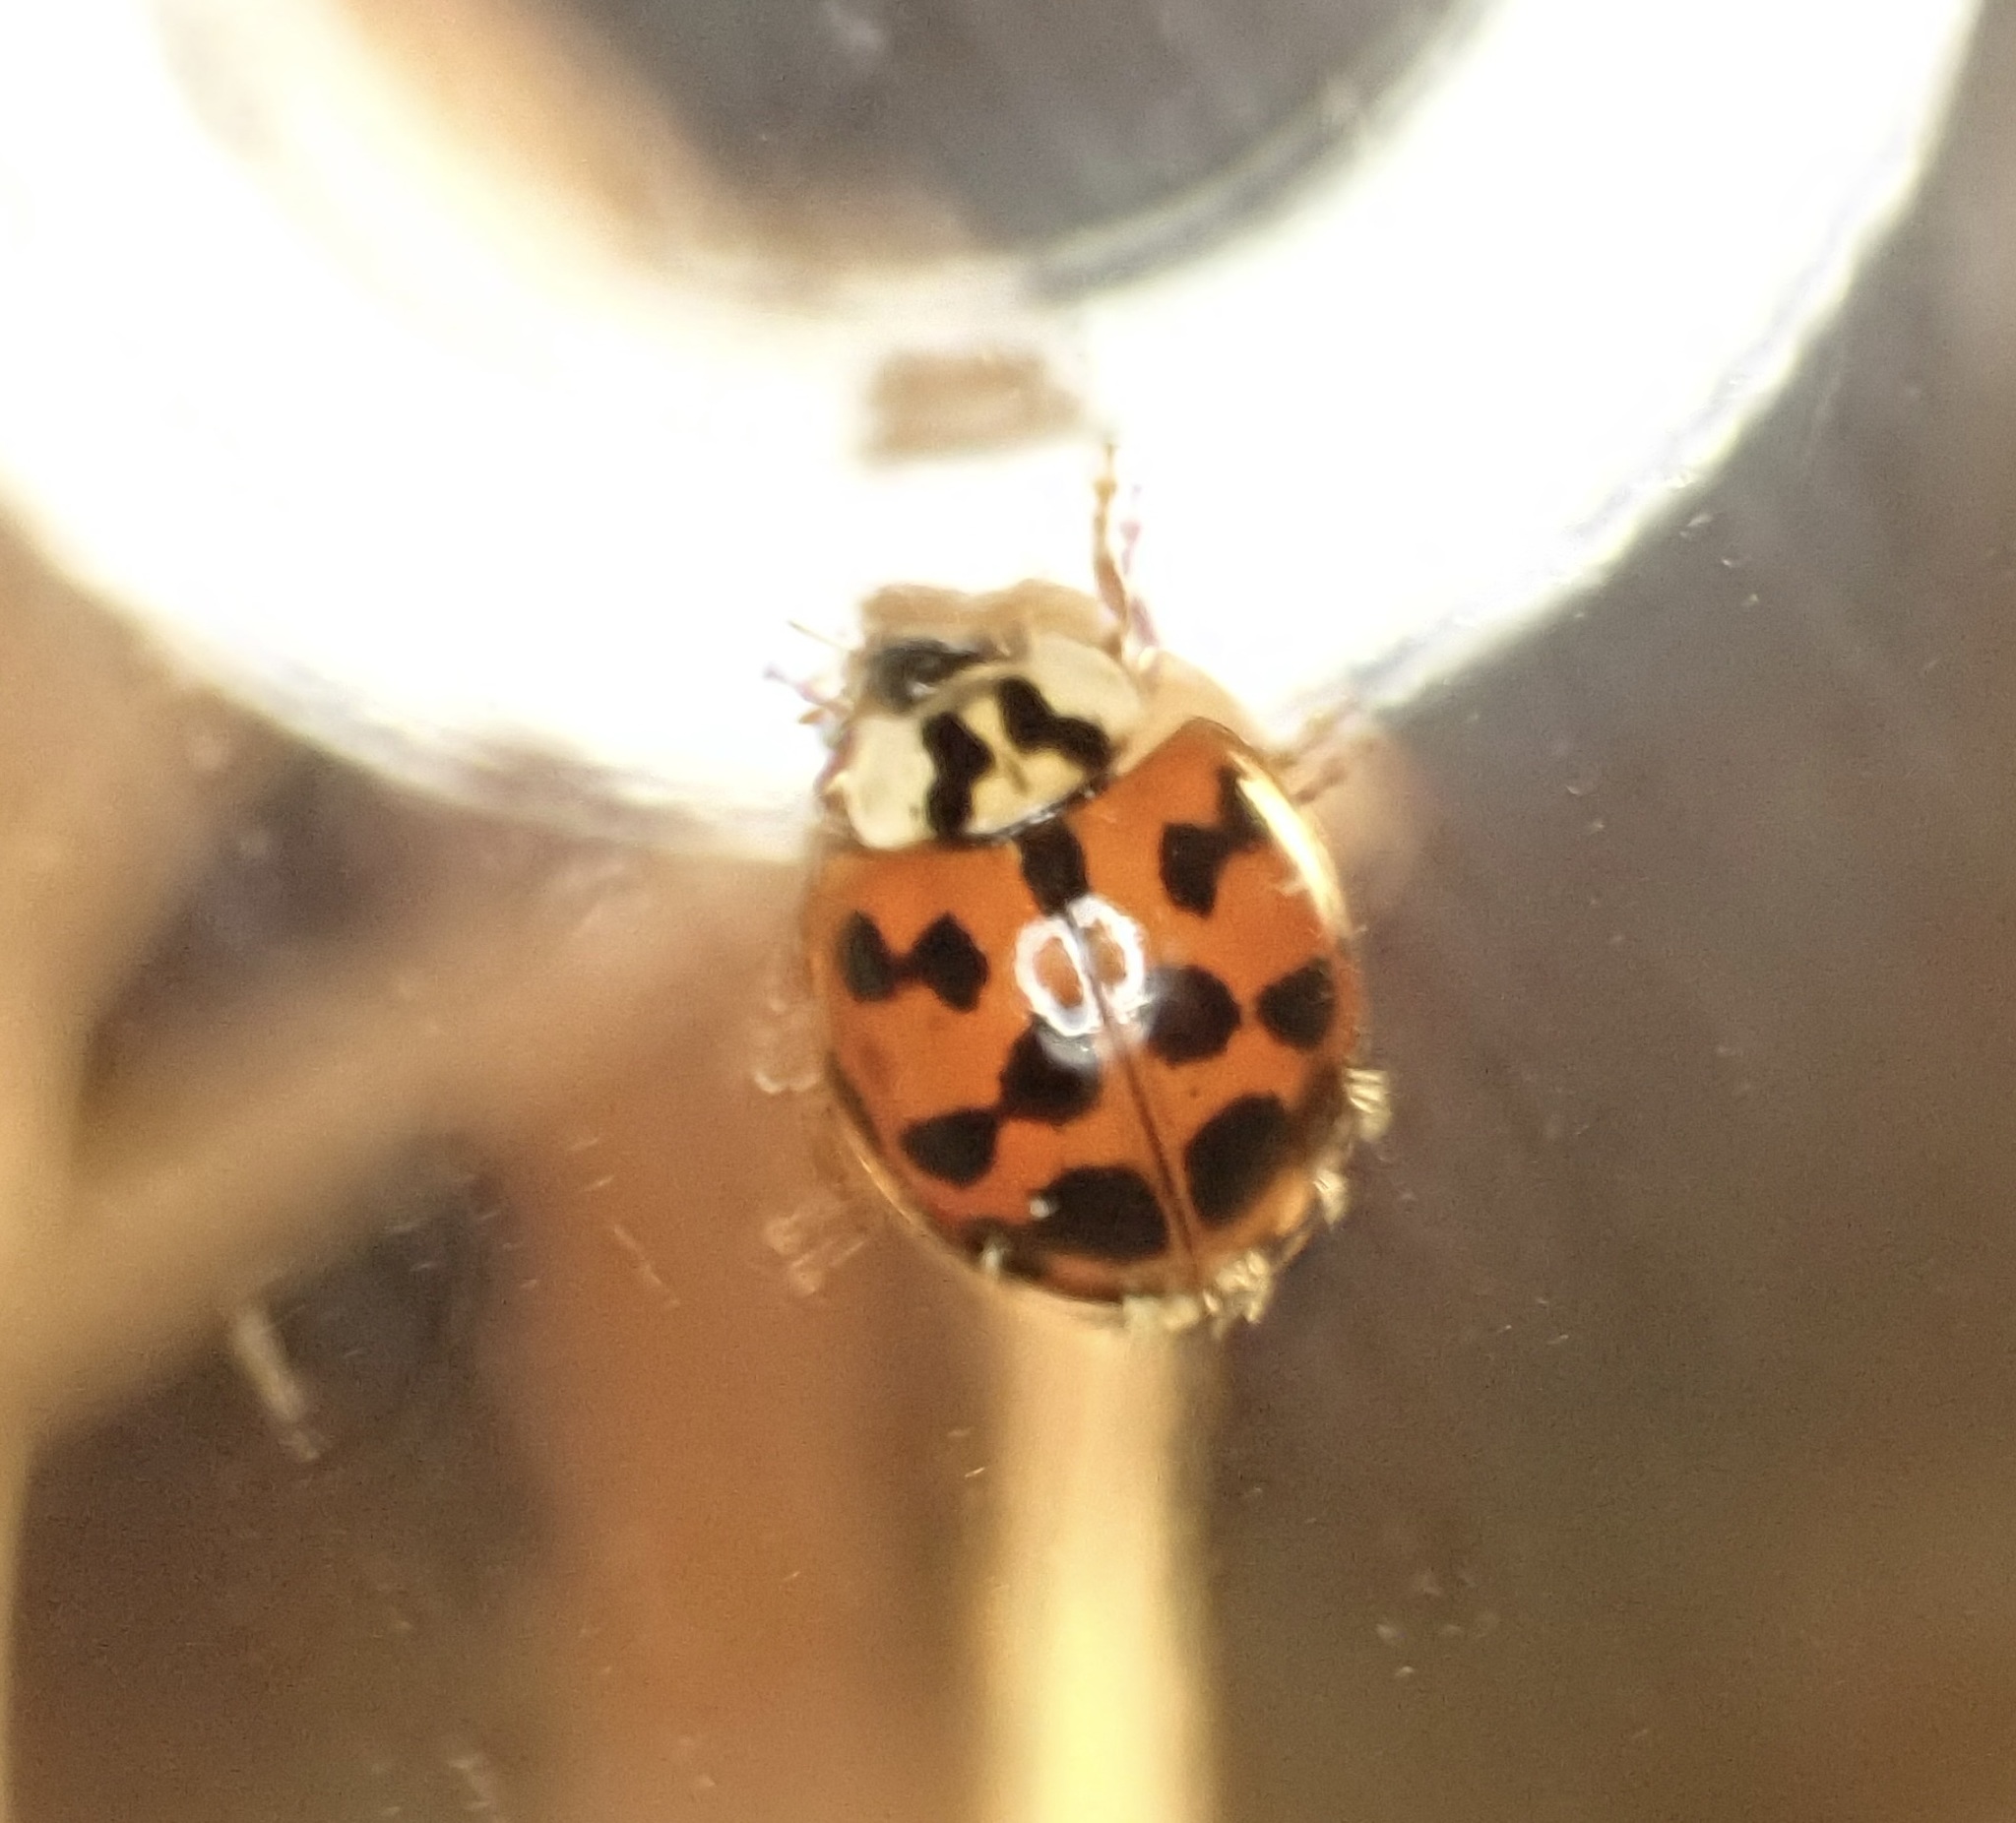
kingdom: Animalia
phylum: Arthropoda
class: Insecta
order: Coleoptera
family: Coccinellidae
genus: Harmonia
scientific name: Harmonia axyridis
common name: Harlequin ladybird
